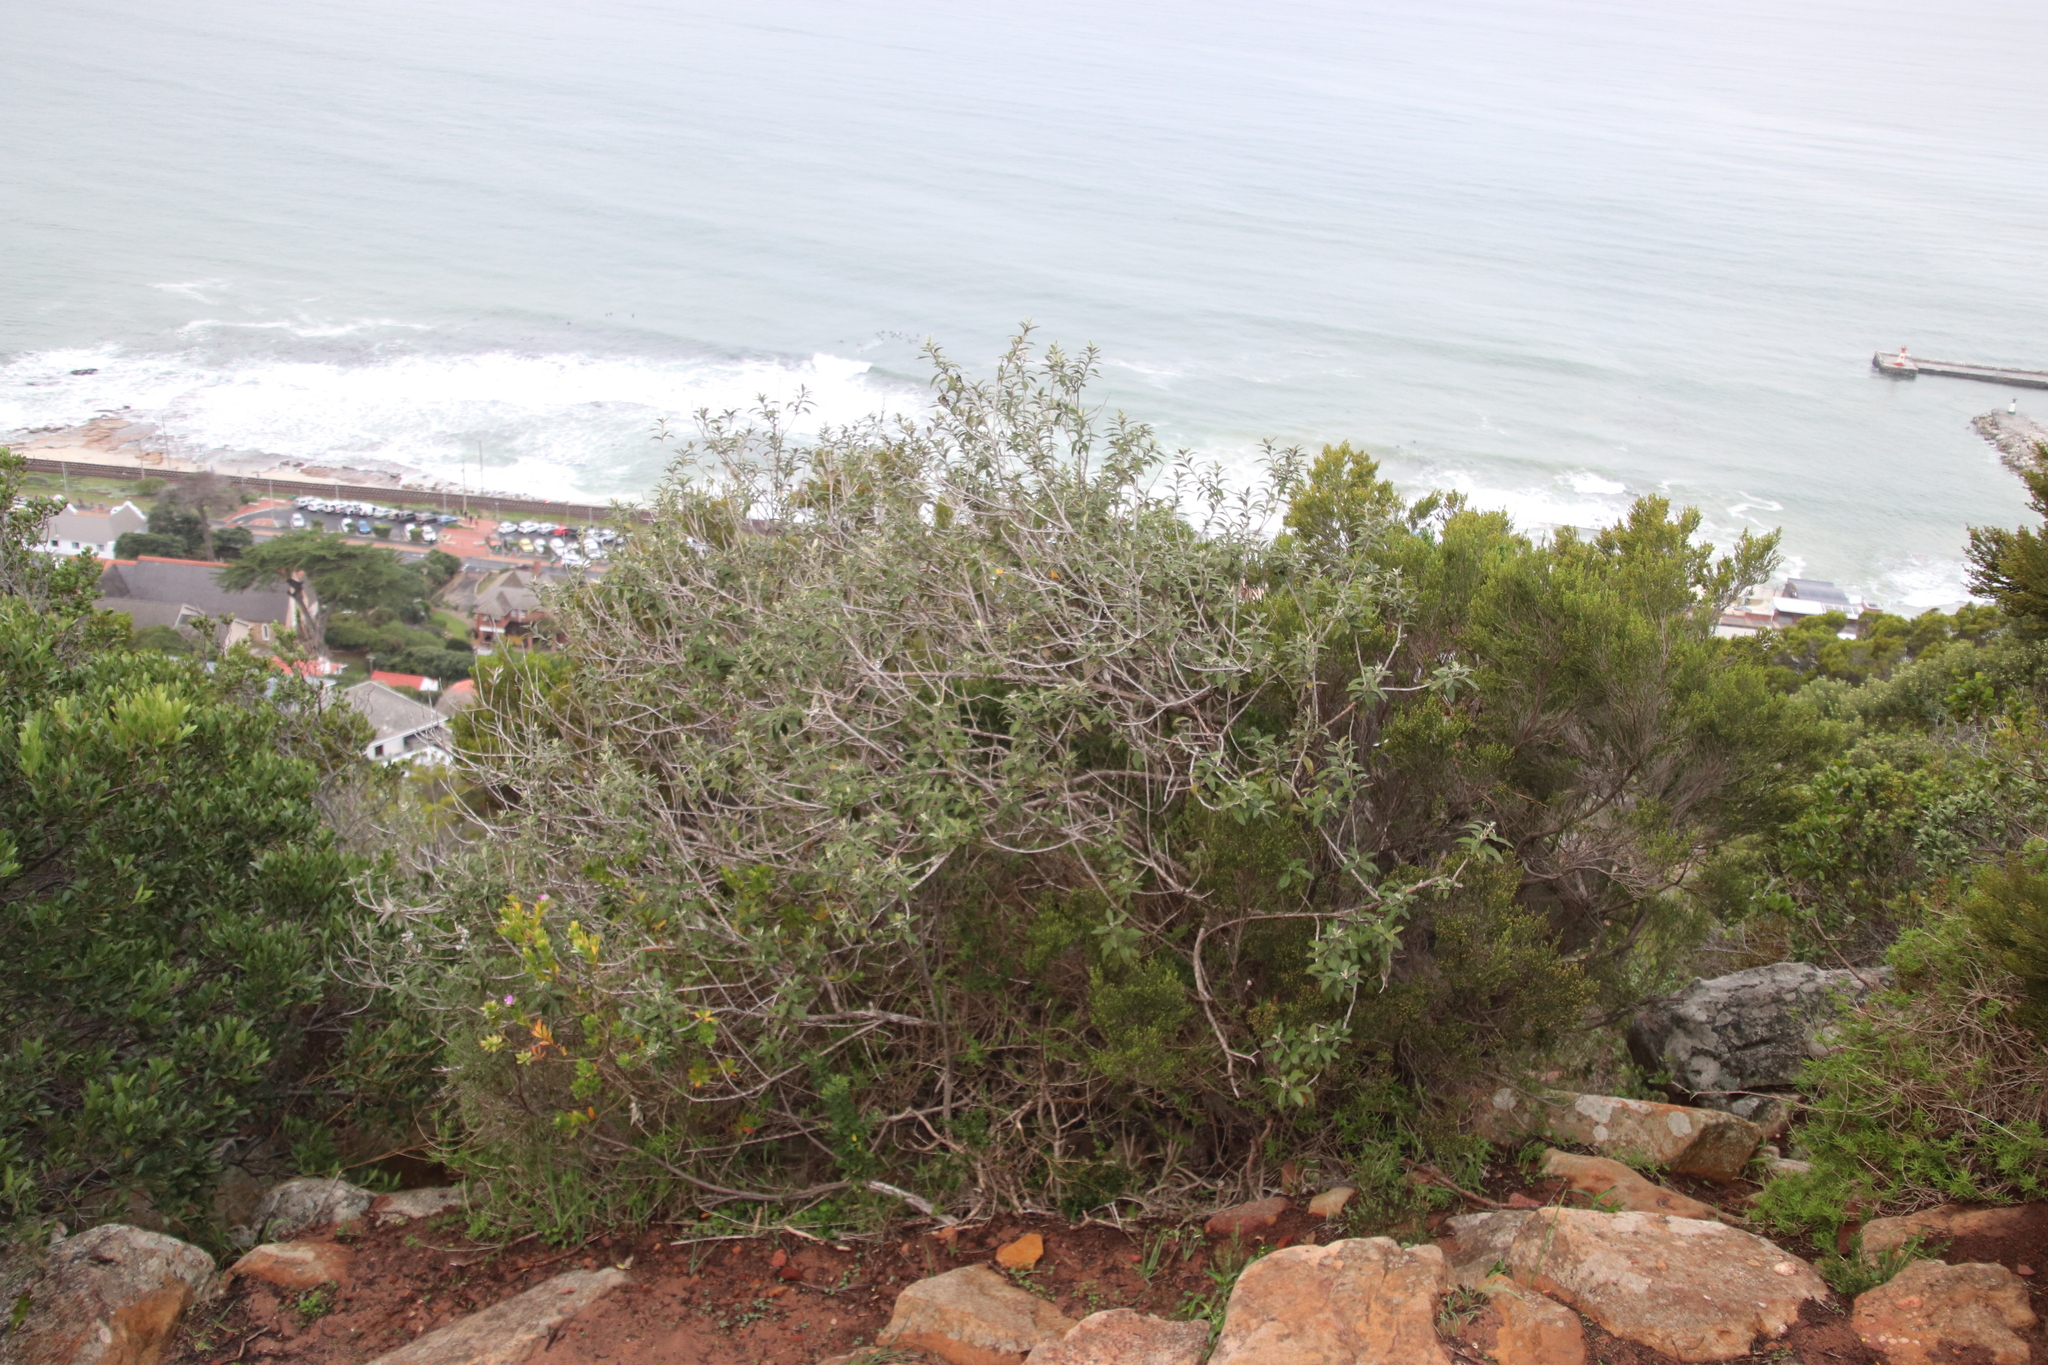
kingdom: Plantae
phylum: Tracheophyta
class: Magnoliopsida
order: Asterales
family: Asteraceae
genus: Tarchonanthus
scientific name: Tarchonanthus littoralis
